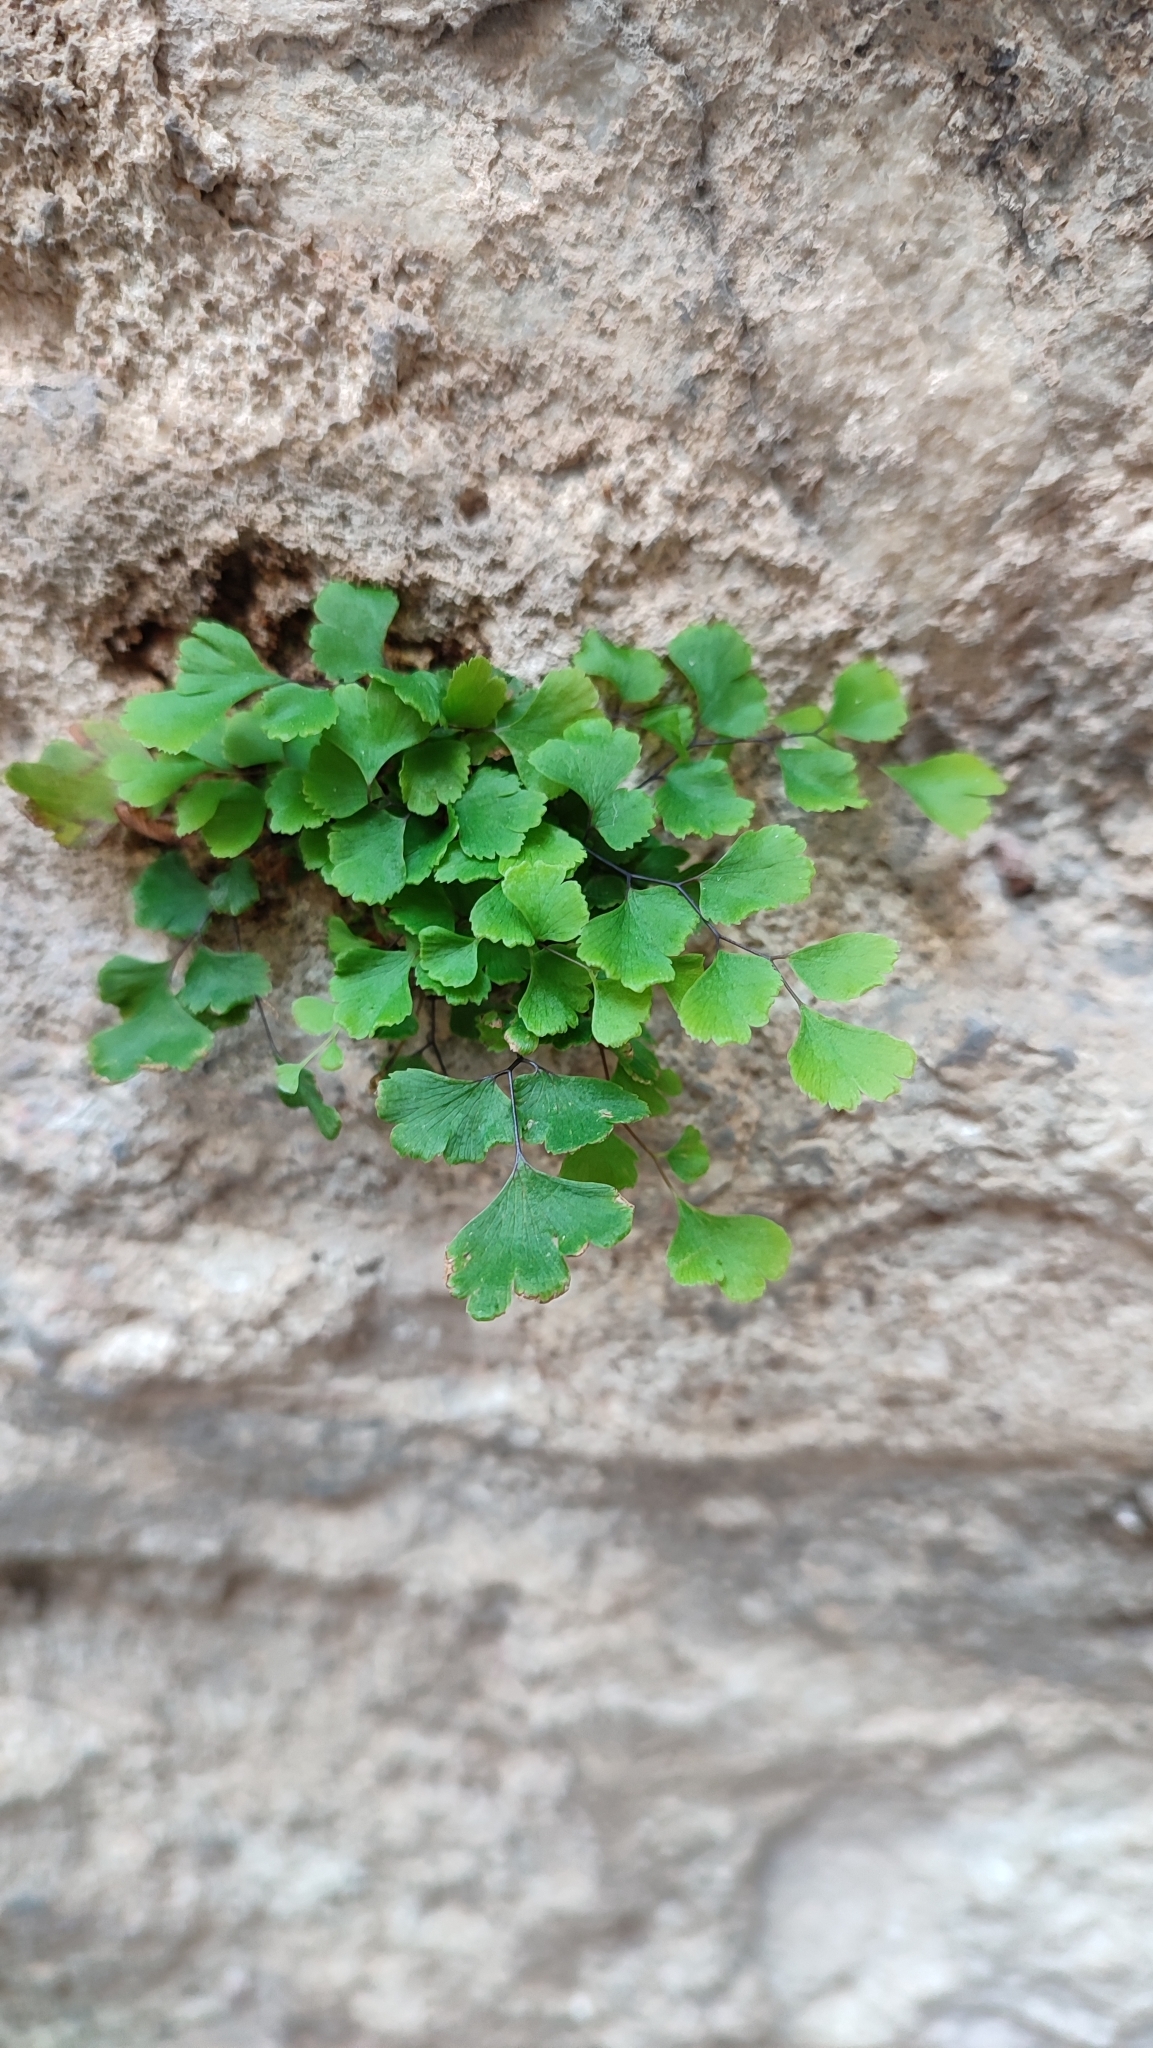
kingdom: Plantae
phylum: Tracheophyta
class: Polypodiopsida
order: Polypodiales
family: Pteridaceae
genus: Adiantum
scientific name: Adiantum capillus-veneris
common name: Maidenhair fern
